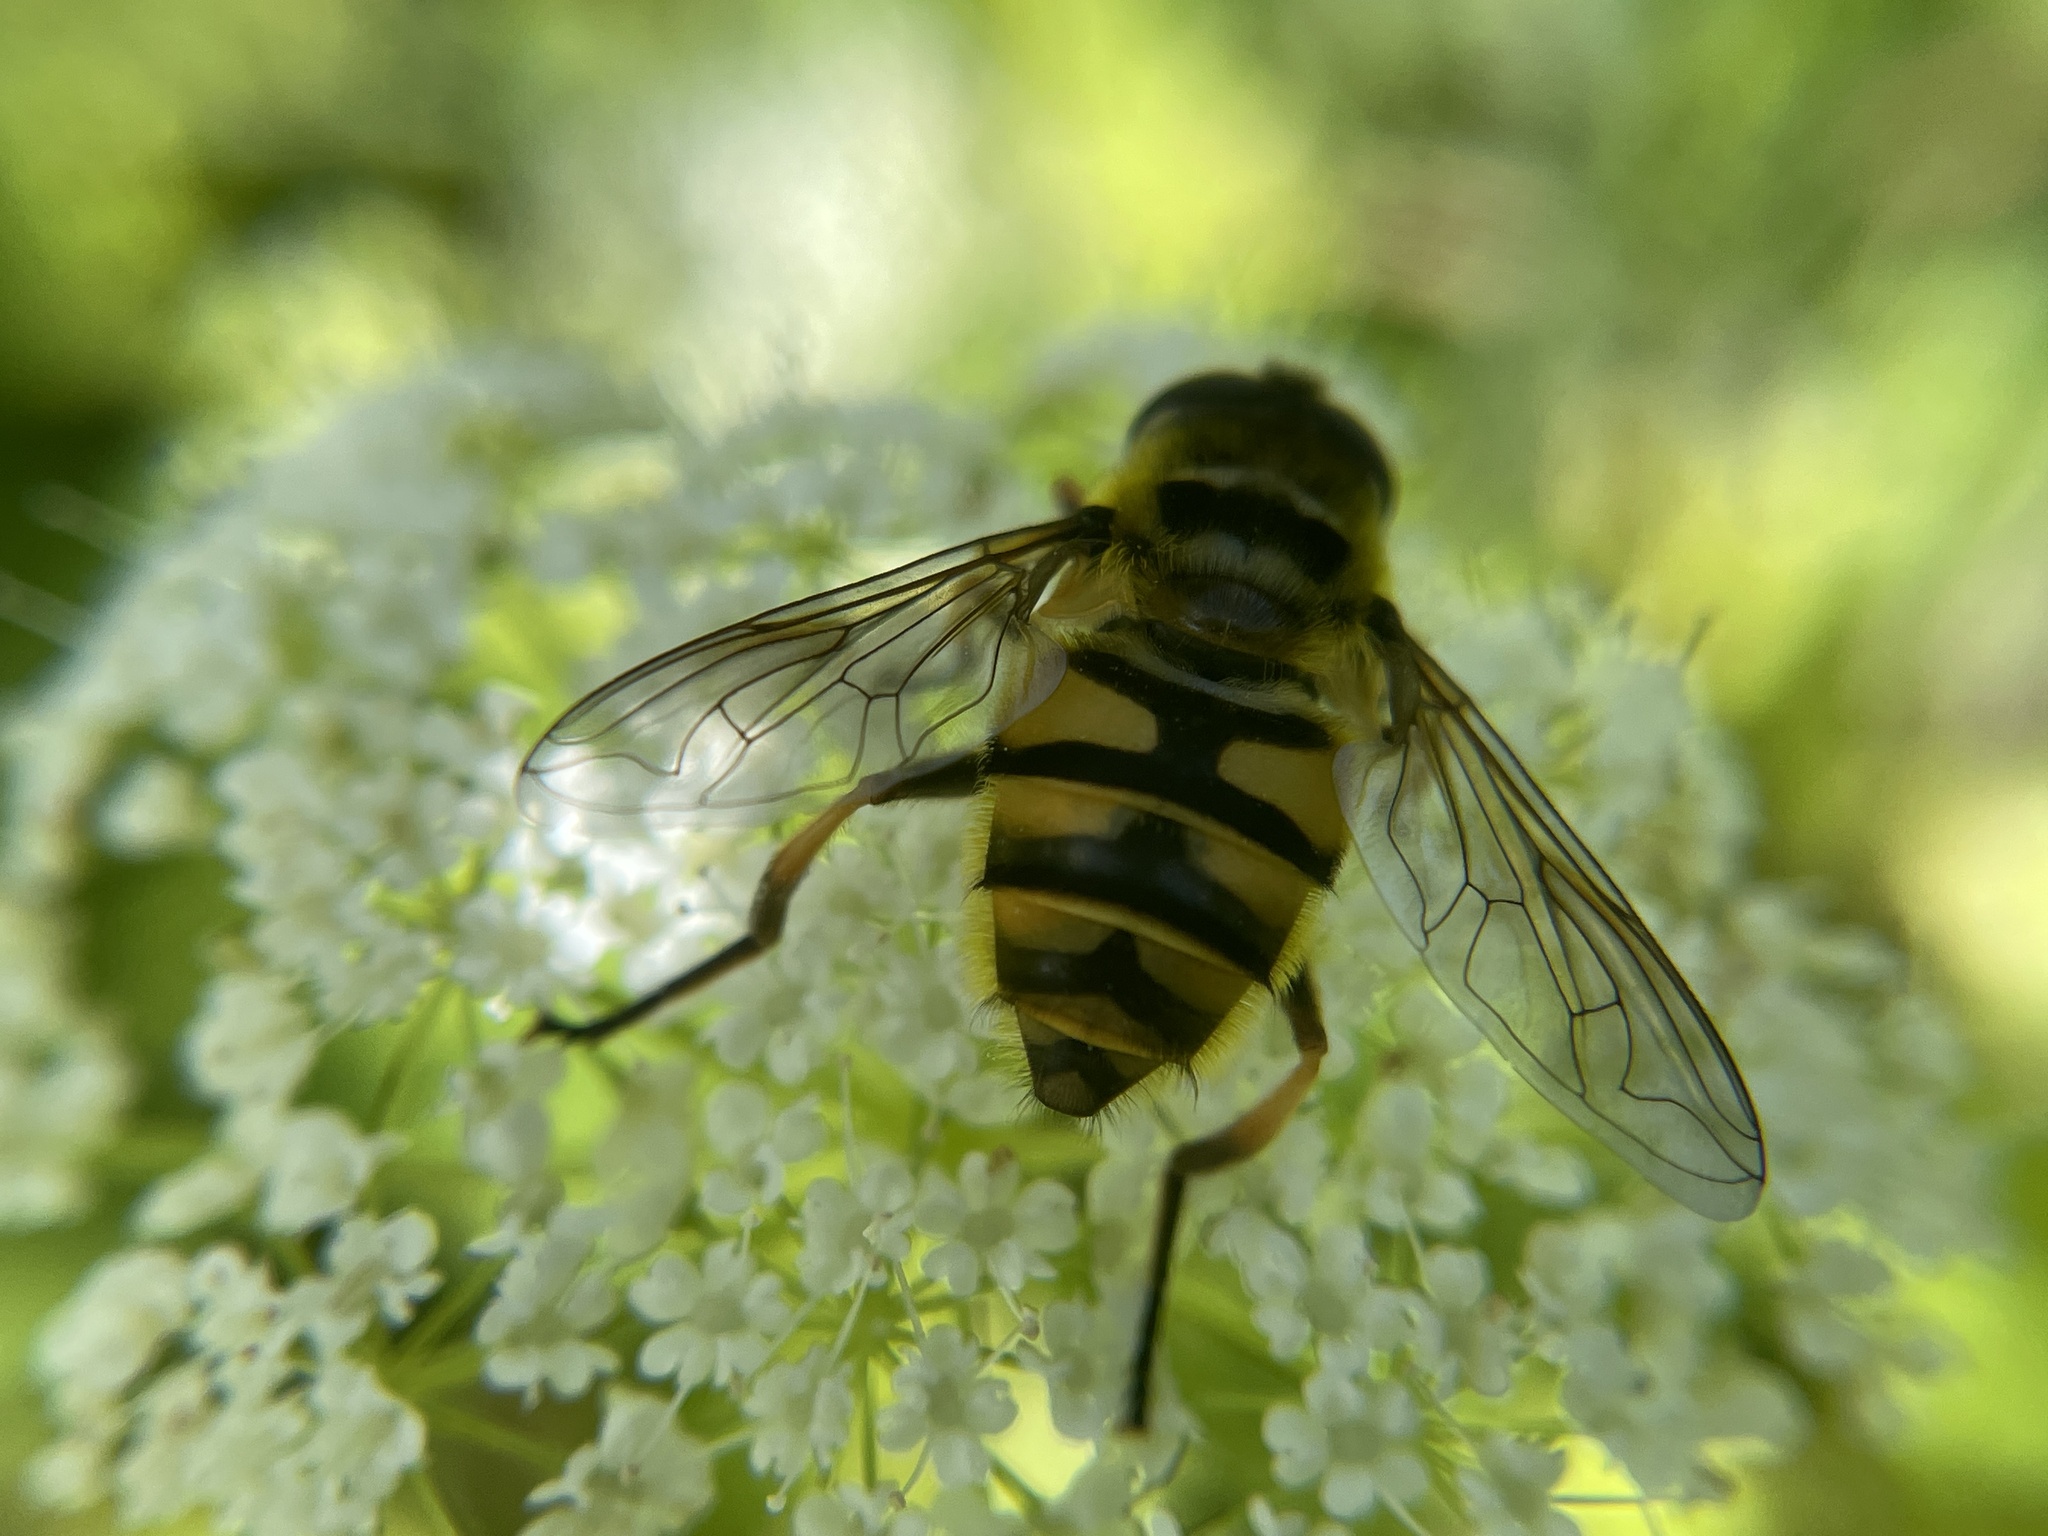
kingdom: Animalia
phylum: Arthropoda
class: Insecta
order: Diptera
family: Syrphidae
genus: Myathropa
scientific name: Myathropa florea
